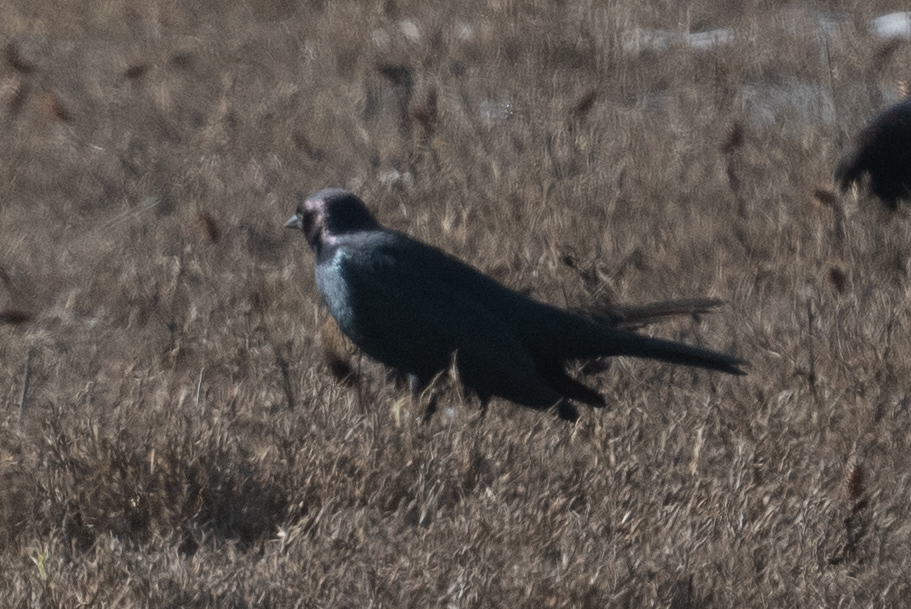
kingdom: Animalia
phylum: Chordata
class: Aves
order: Passeriformes
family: Icteridae
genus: Euphagus
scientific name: Euphagus cyanocephalus
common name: Brewer's blackbird
